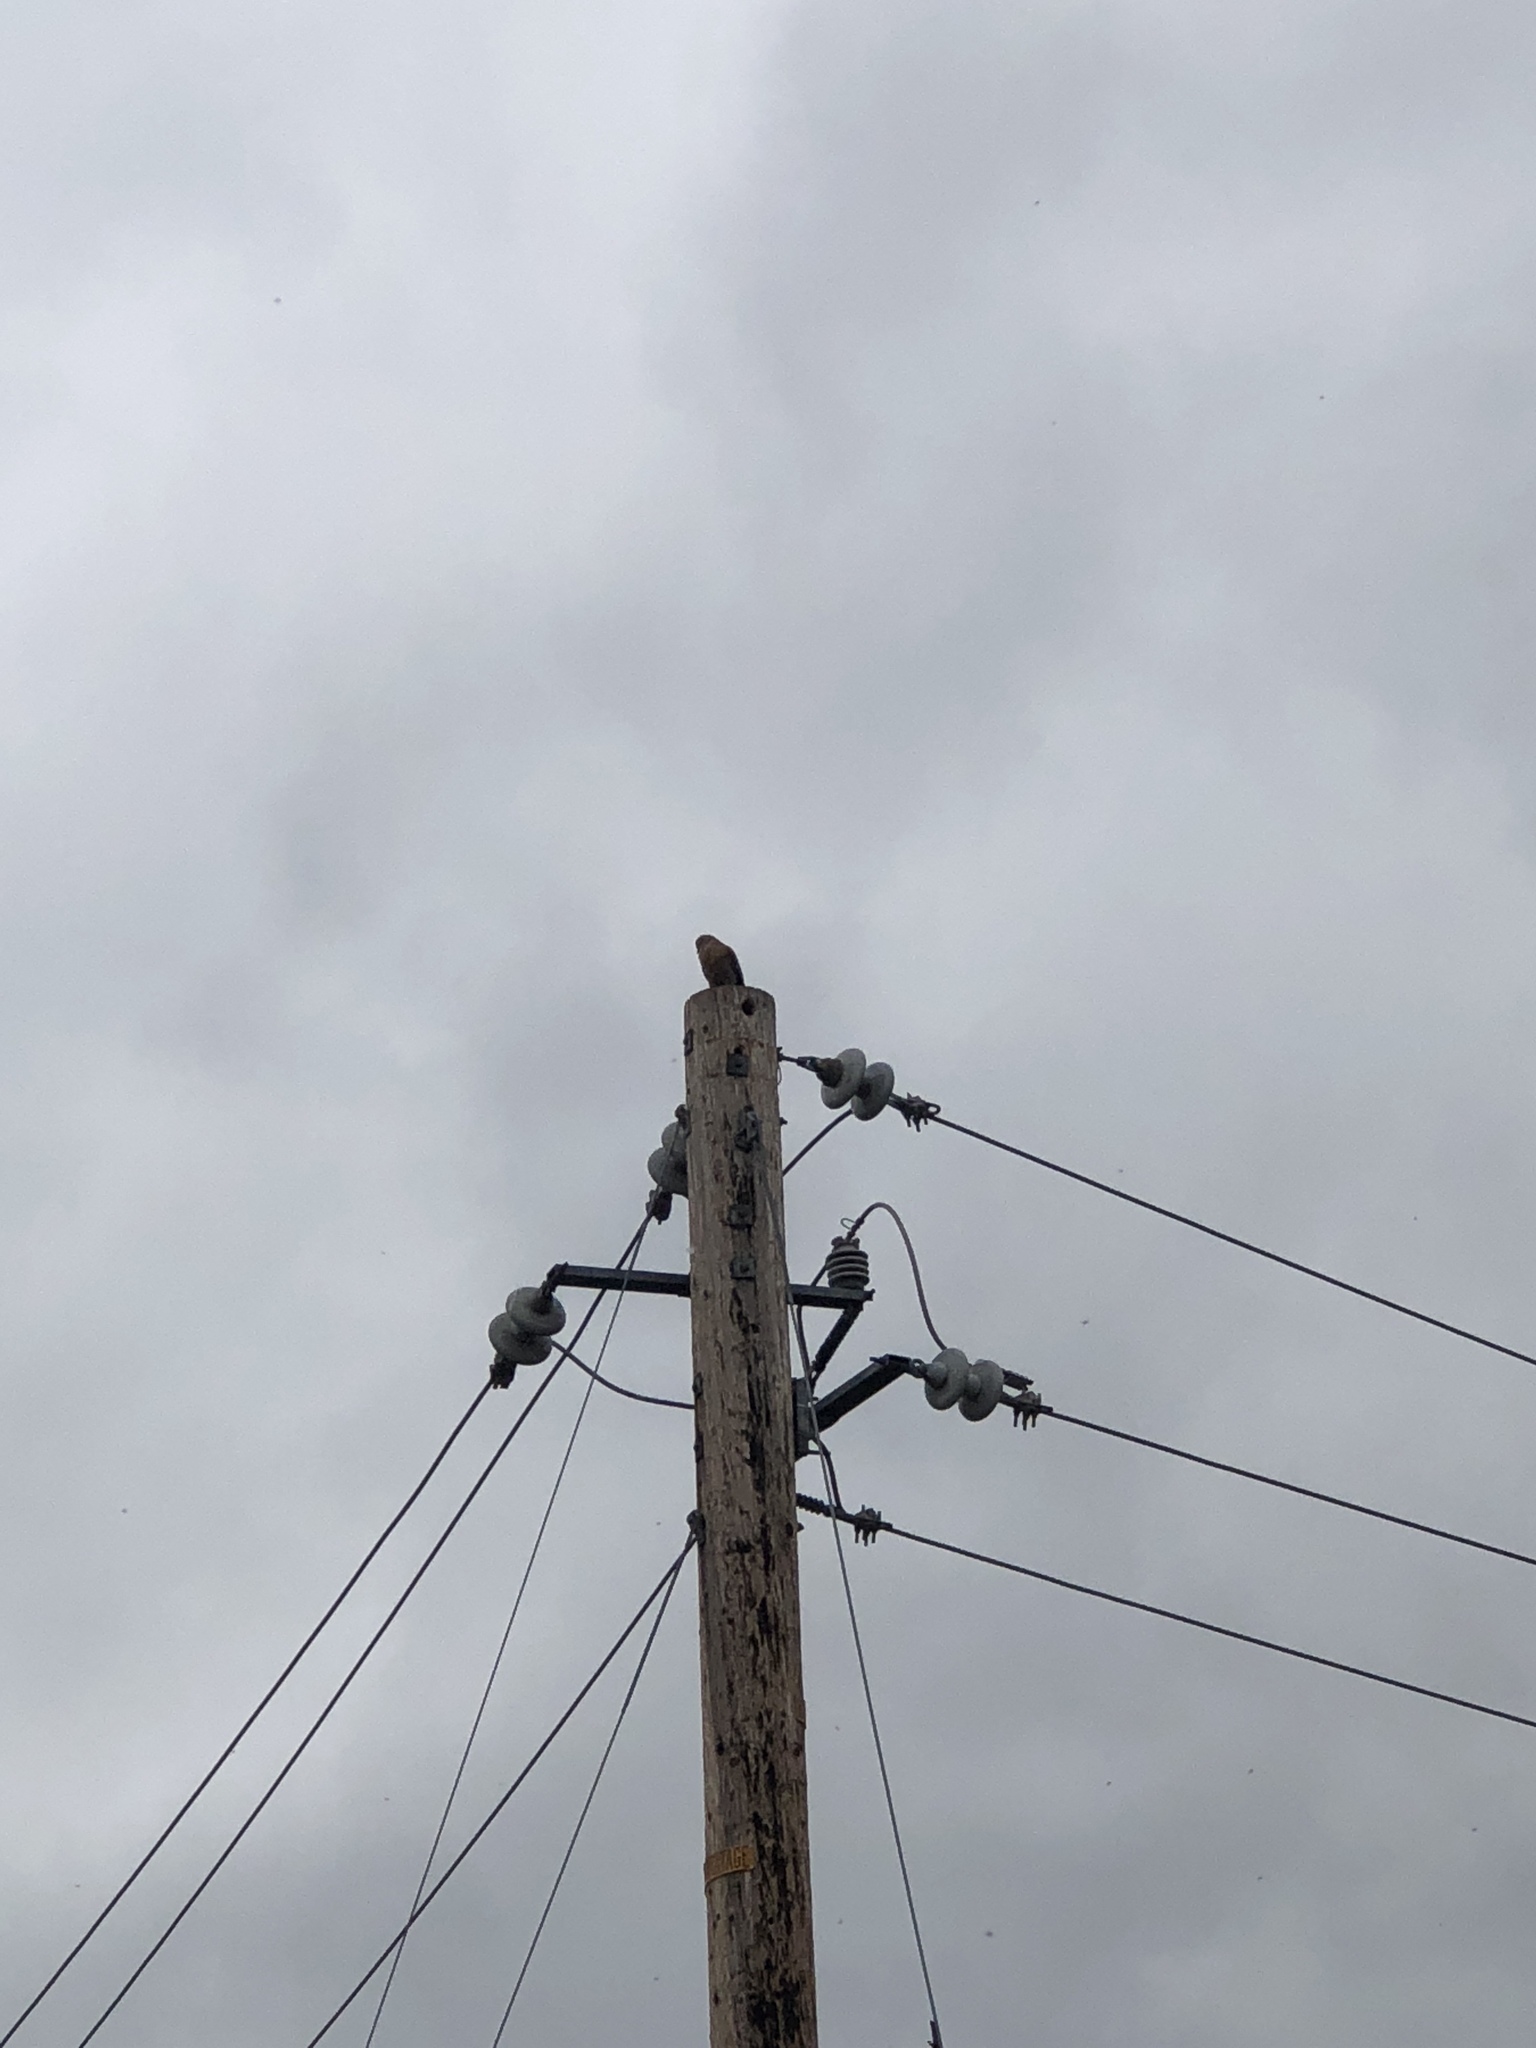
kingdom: Animalia
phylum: Chordata
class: Aves
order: Accipitriformes
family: Accipitridae
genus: Buteo
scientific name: Buteo jamaicensis
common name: Red-tailed hawk
